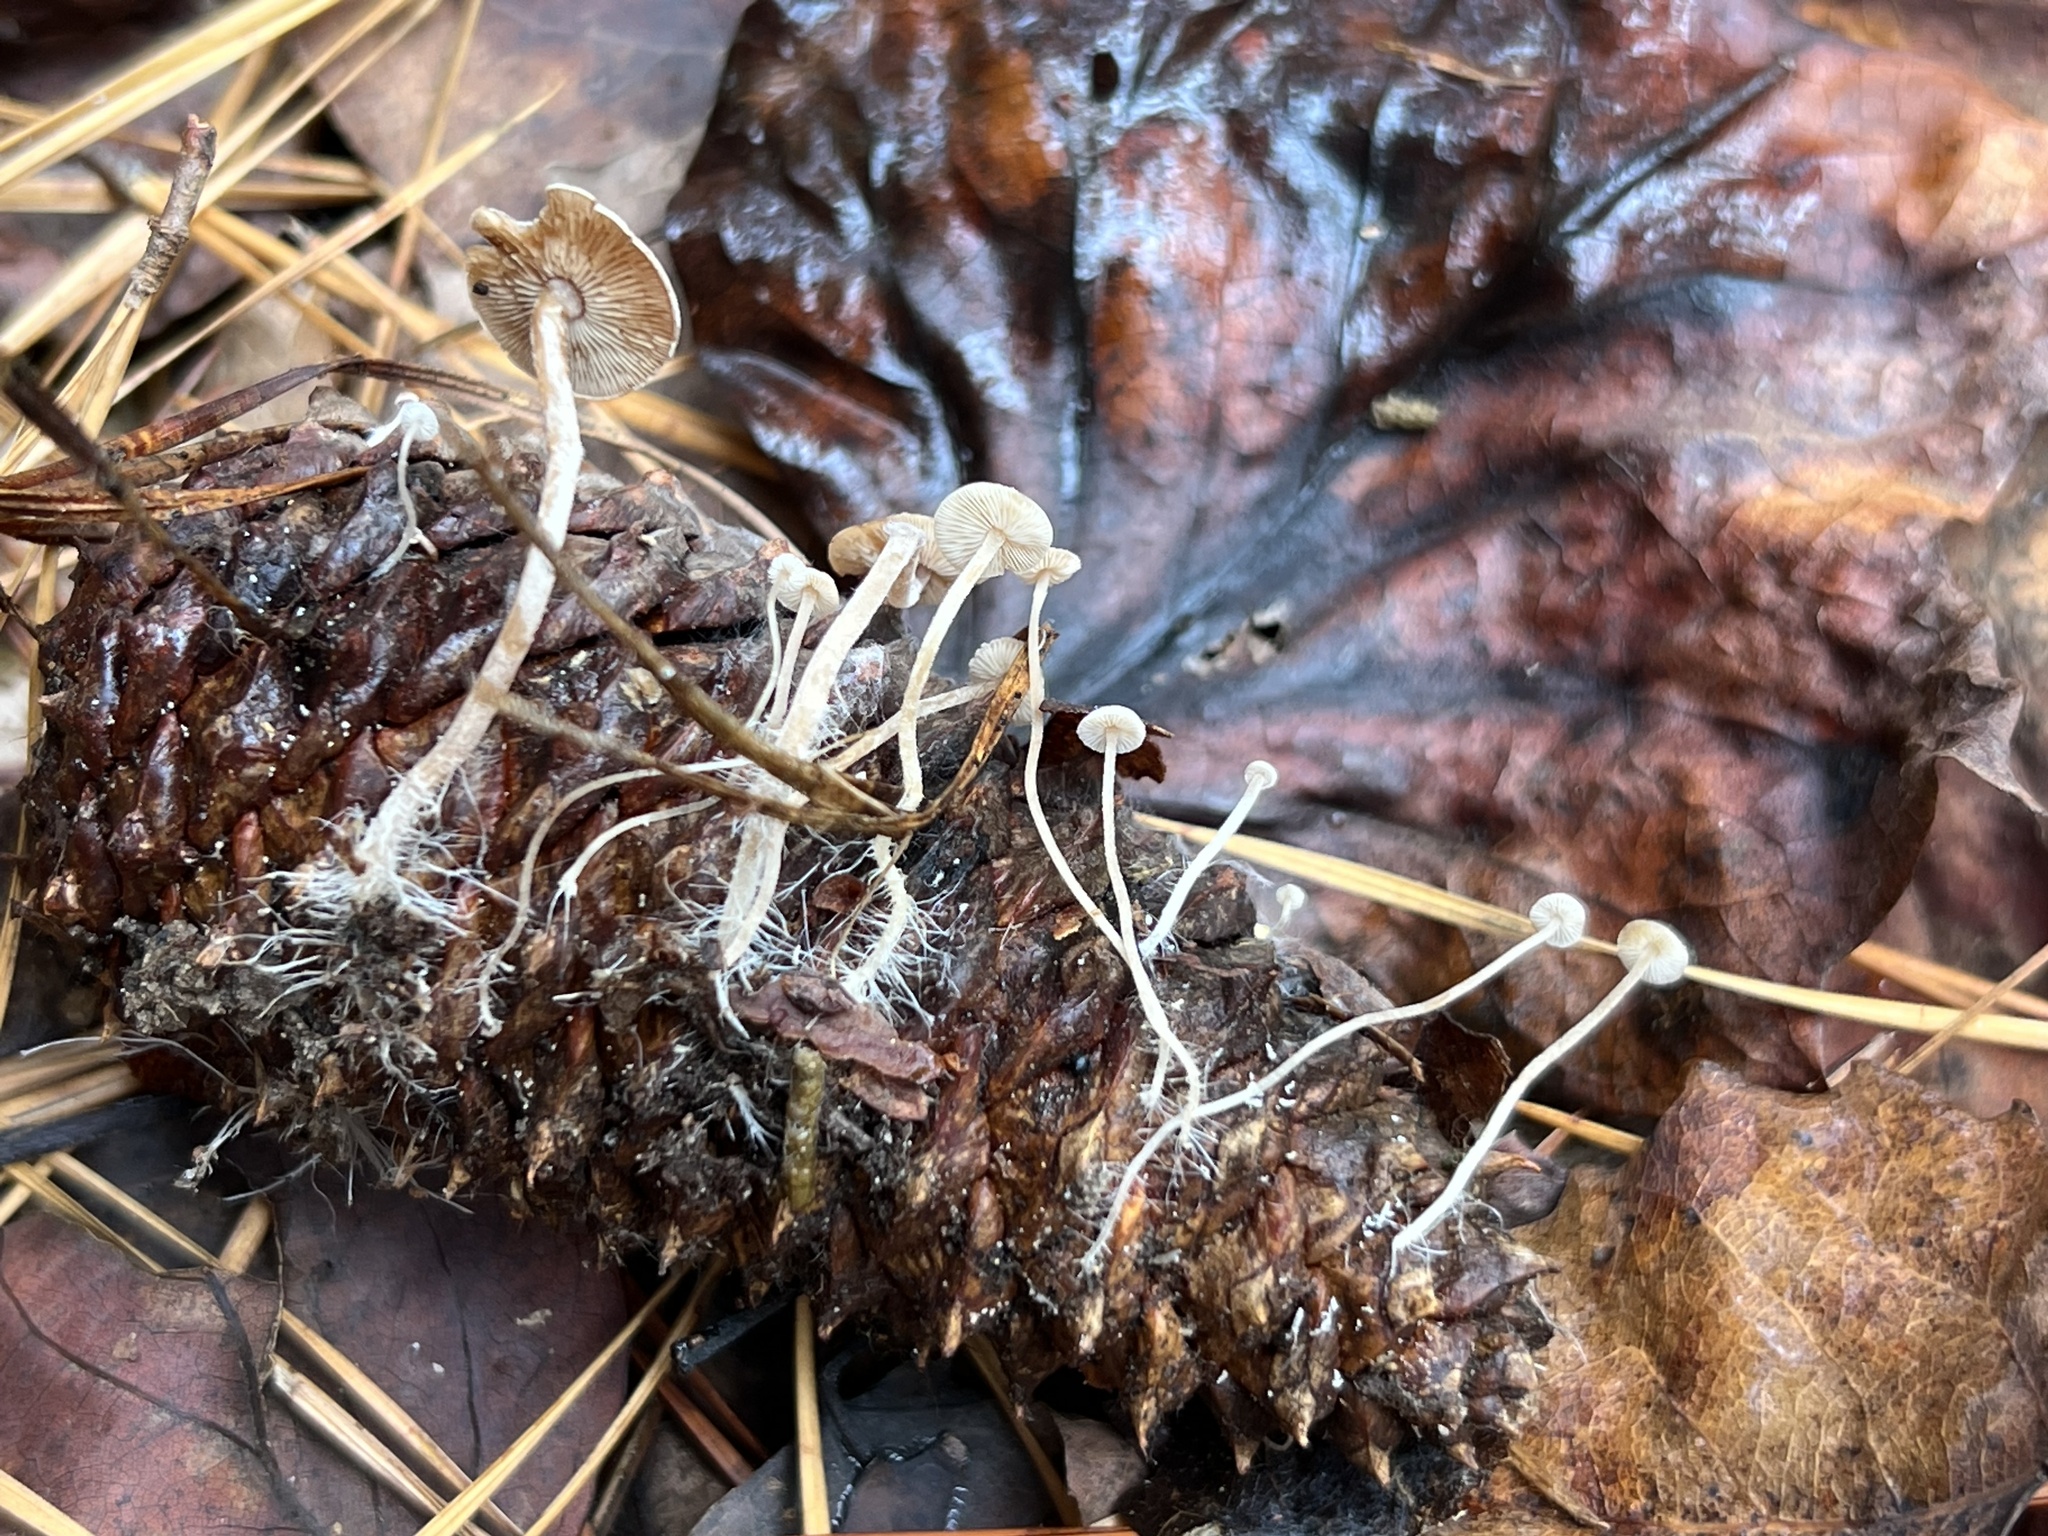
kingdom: Fungi
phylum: Basidiomycota
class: Agaricomycetes
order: Agaricales
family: Marasmiaceae
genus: Baeospora
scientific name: Baeospora myosura
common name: Conifercone cap
